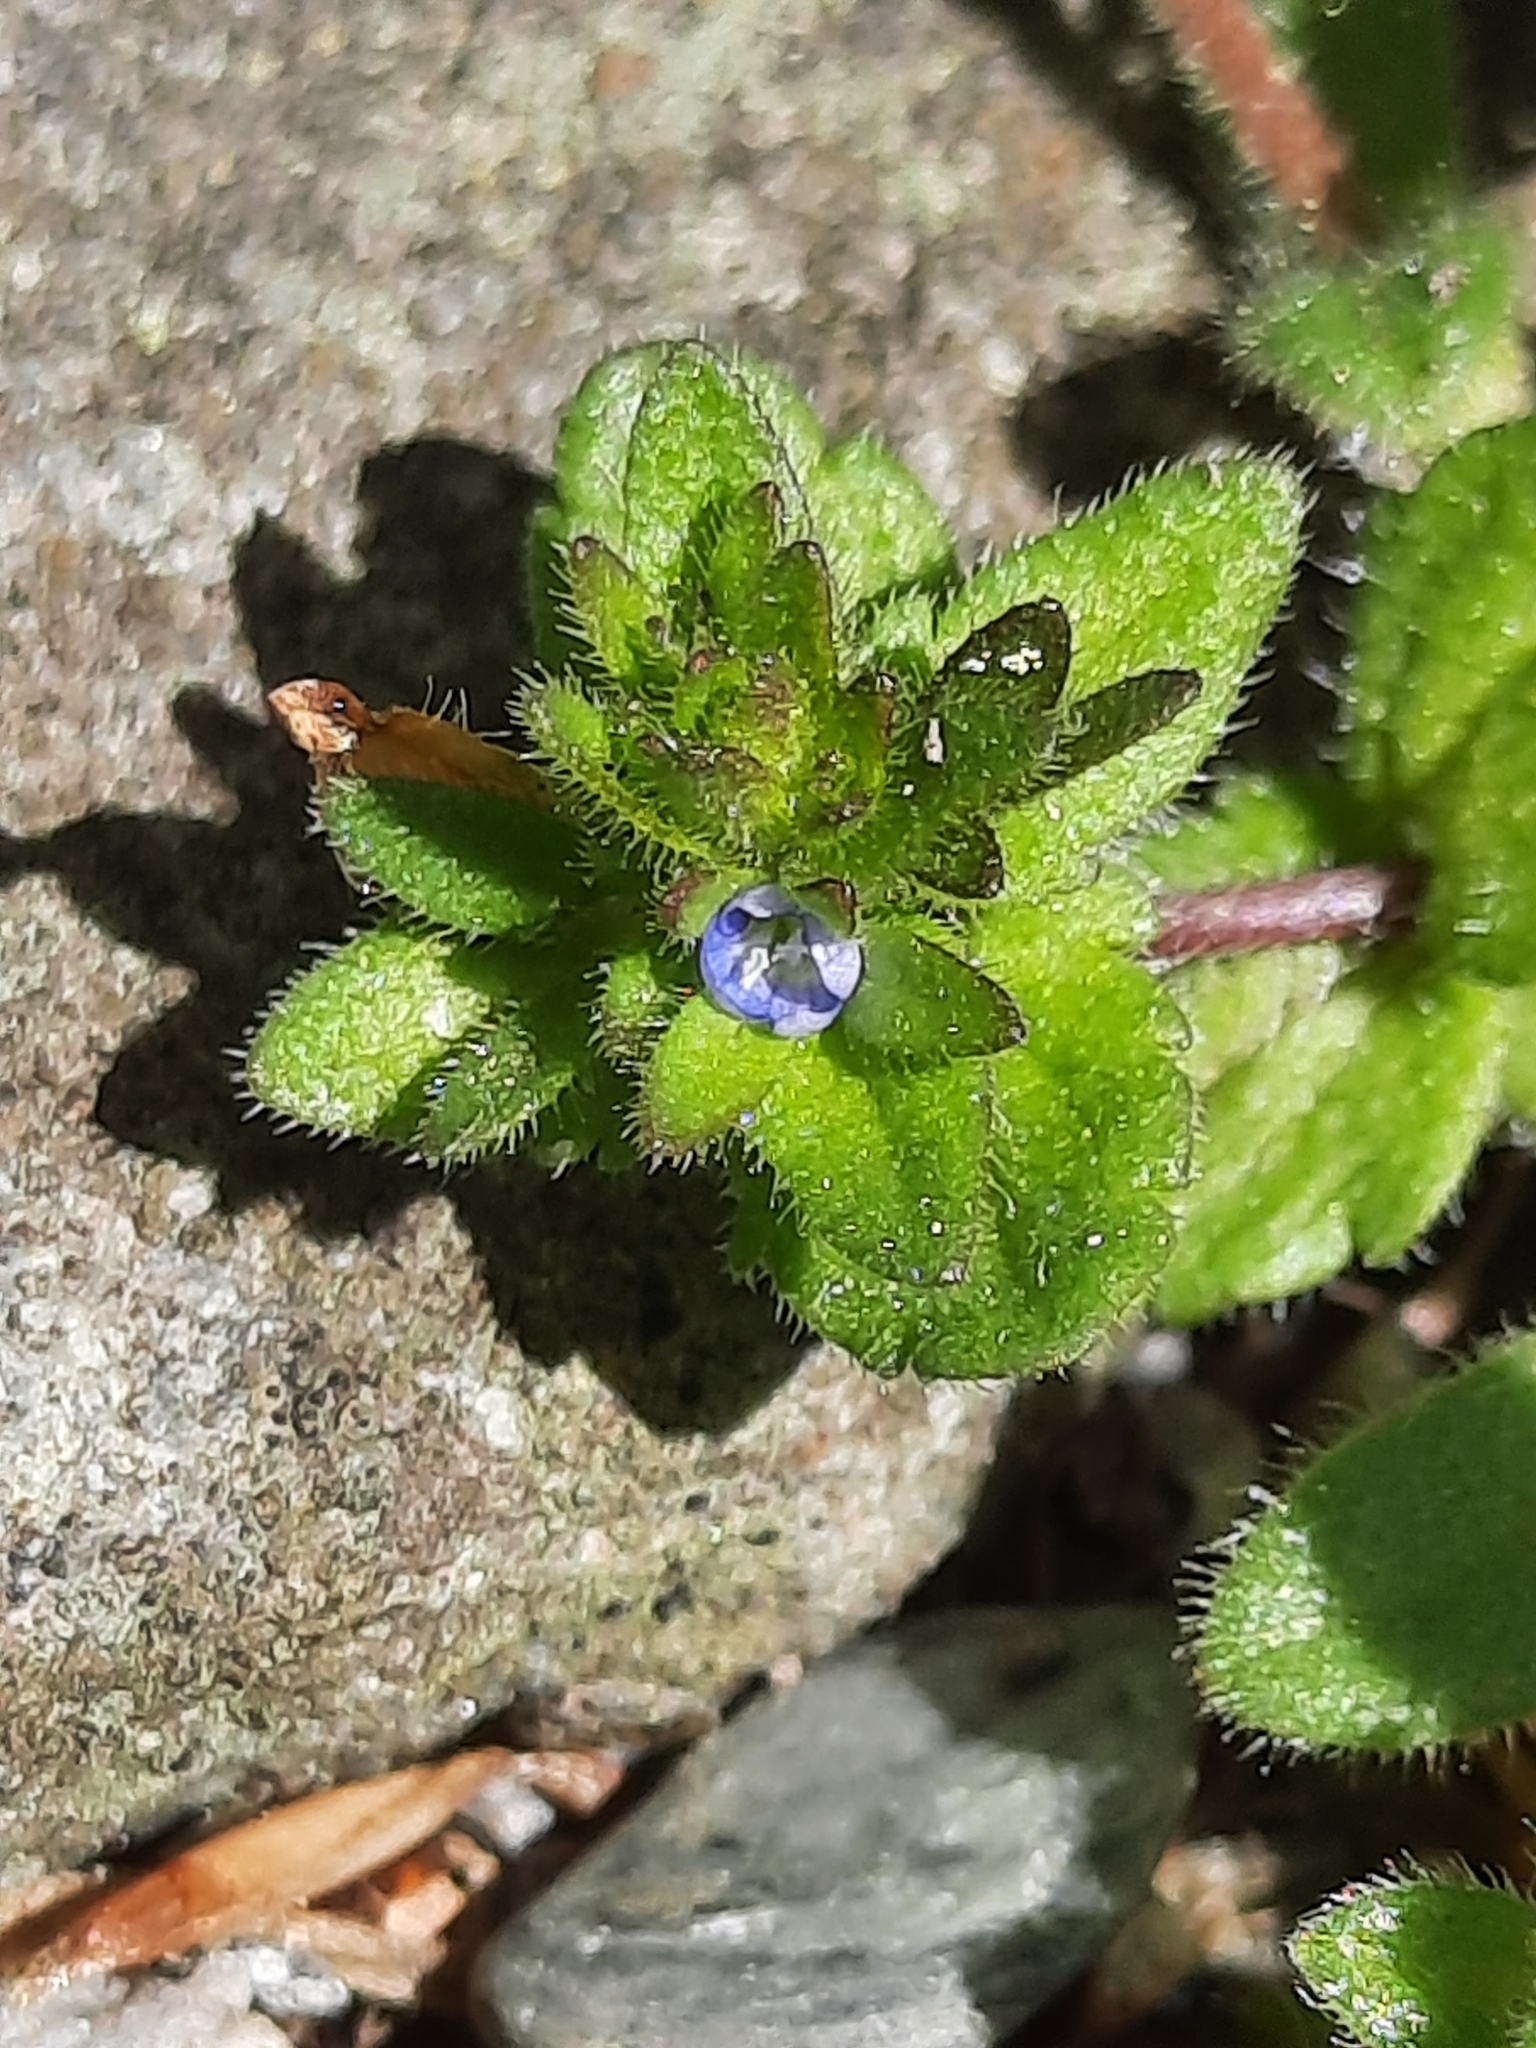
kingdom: Plantae
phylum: Tracheophyta
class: Magnoliopsida
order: Lamiales
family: Plantaginaceae
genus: Veronica
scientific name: Veronica arvensis
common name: Corn speedwell
